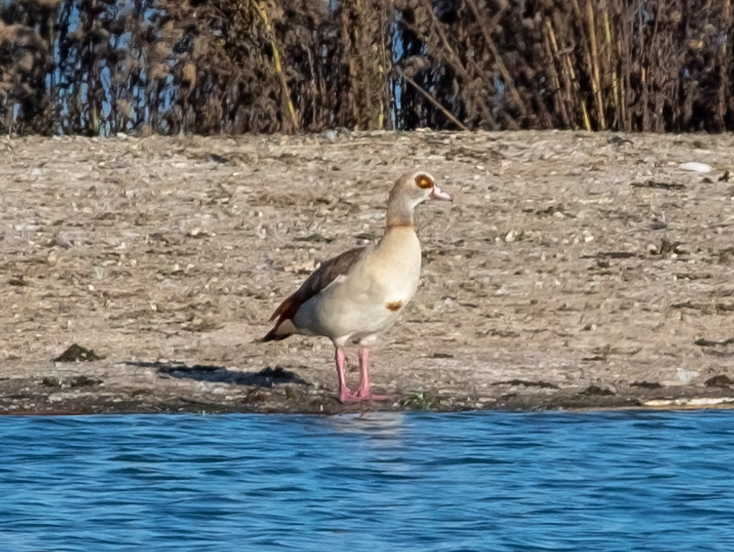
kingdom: Animalia
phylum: Chordata
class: Aves
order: Anseriformes
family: Anatidae
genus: Alopochen
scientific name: Alopochen aegyptiaca
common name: Egyptian goose
